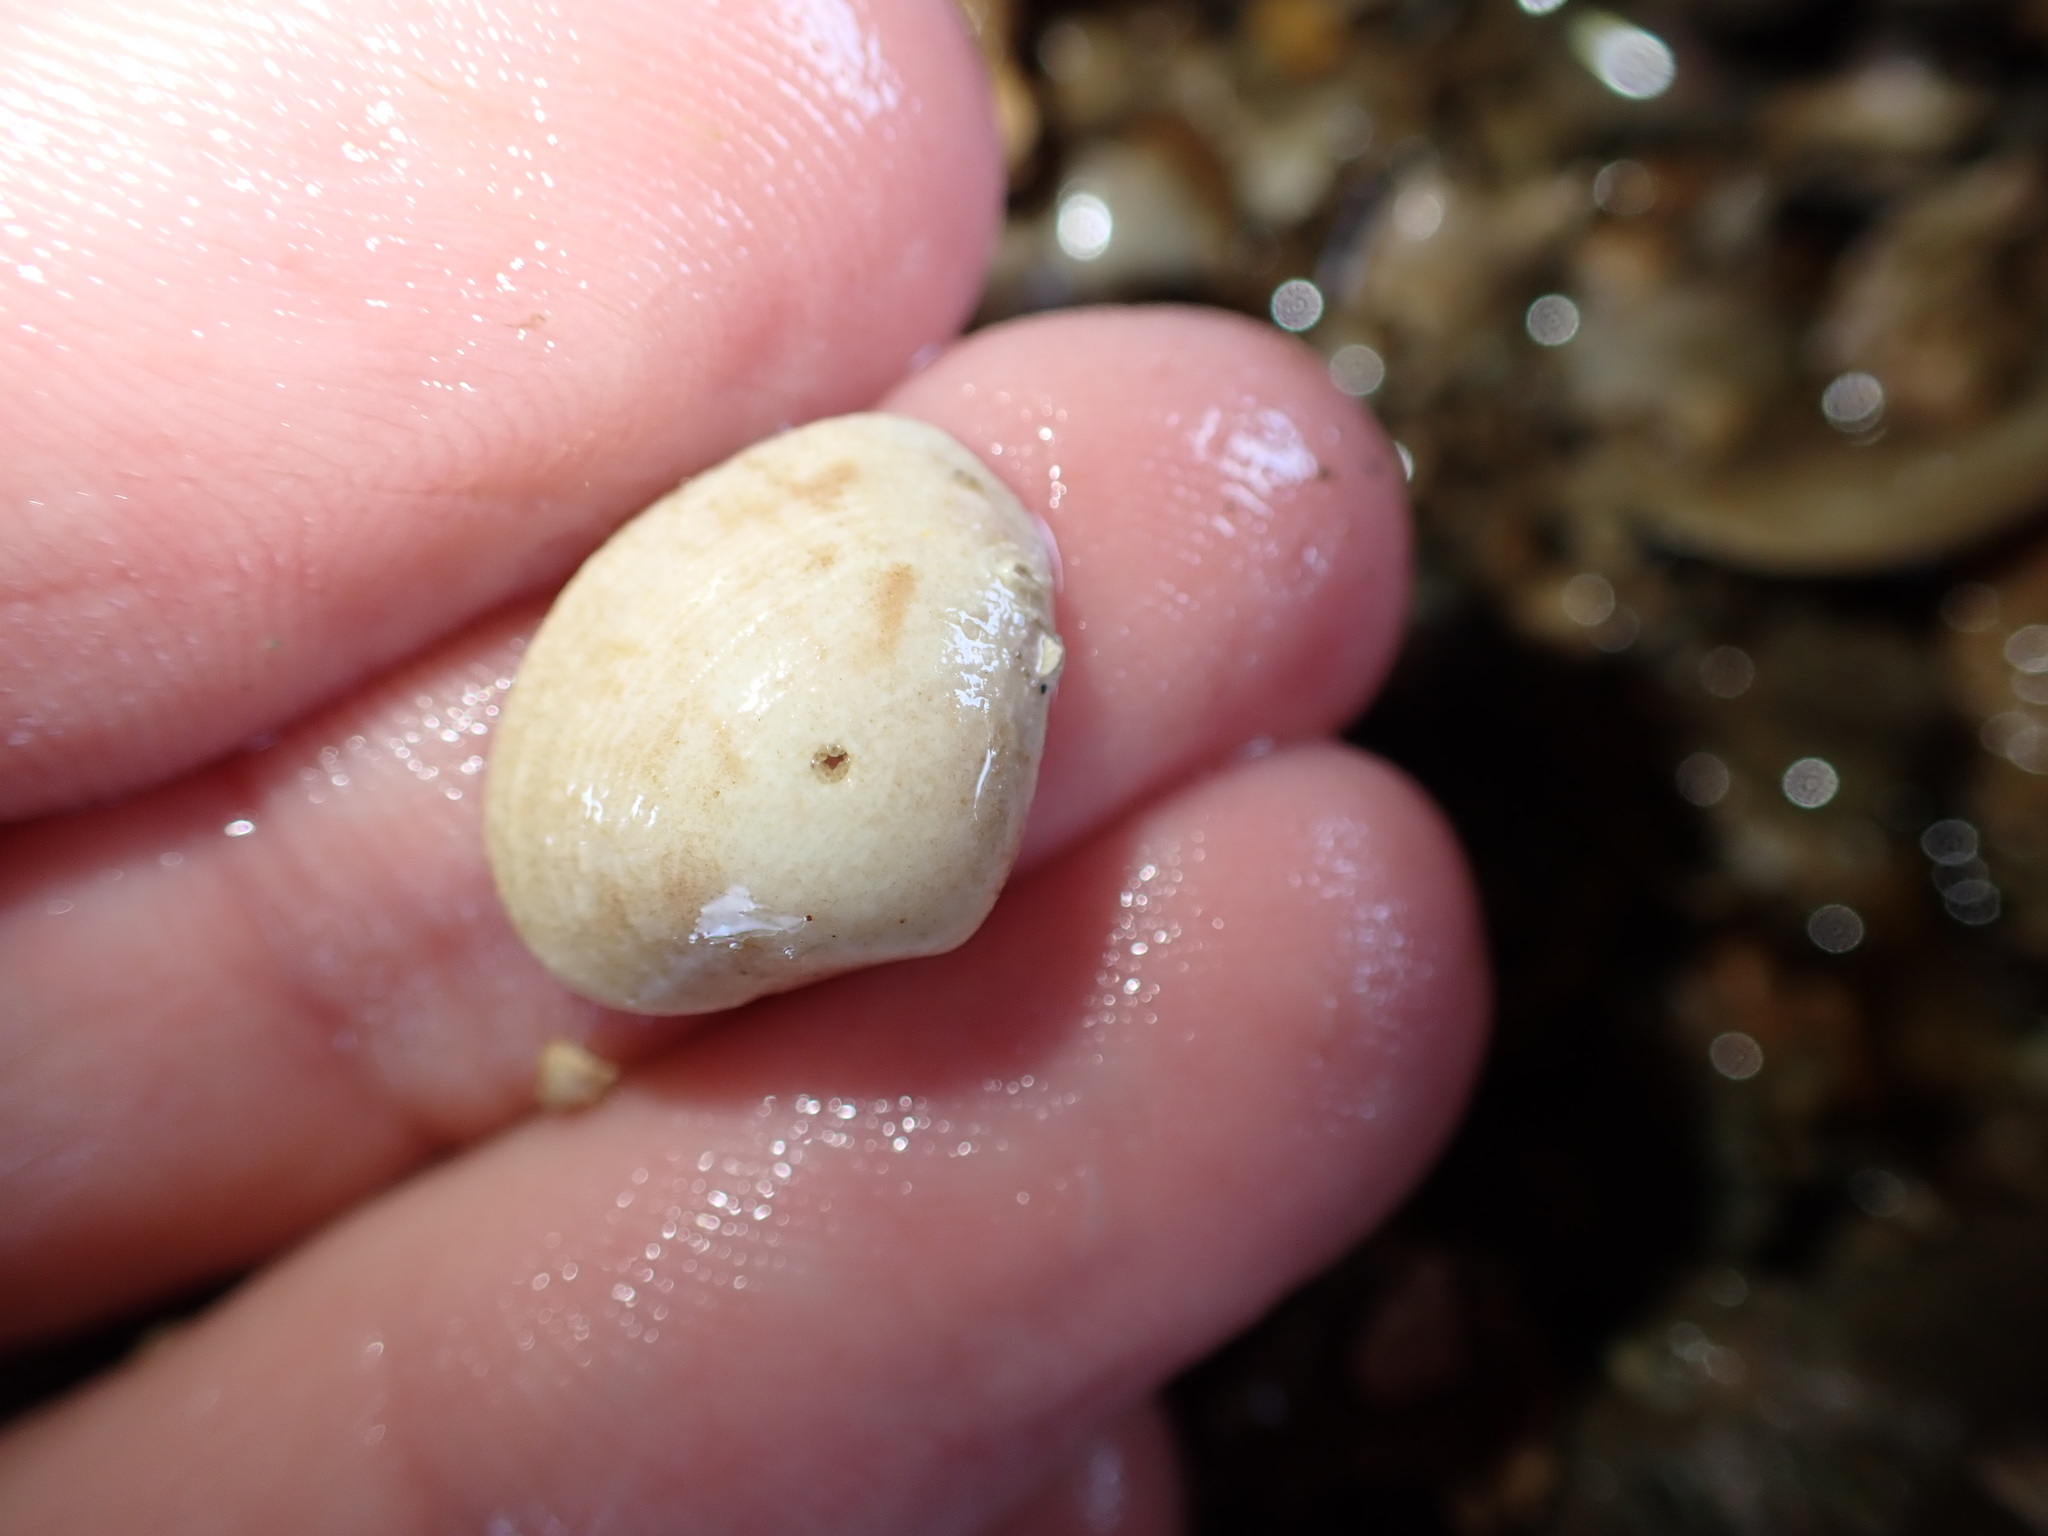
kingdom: Animalia
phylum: Mollusca
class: Bivalvia
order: Venerida
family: Veneridae
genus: Tawera
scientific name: Tawera spissa
